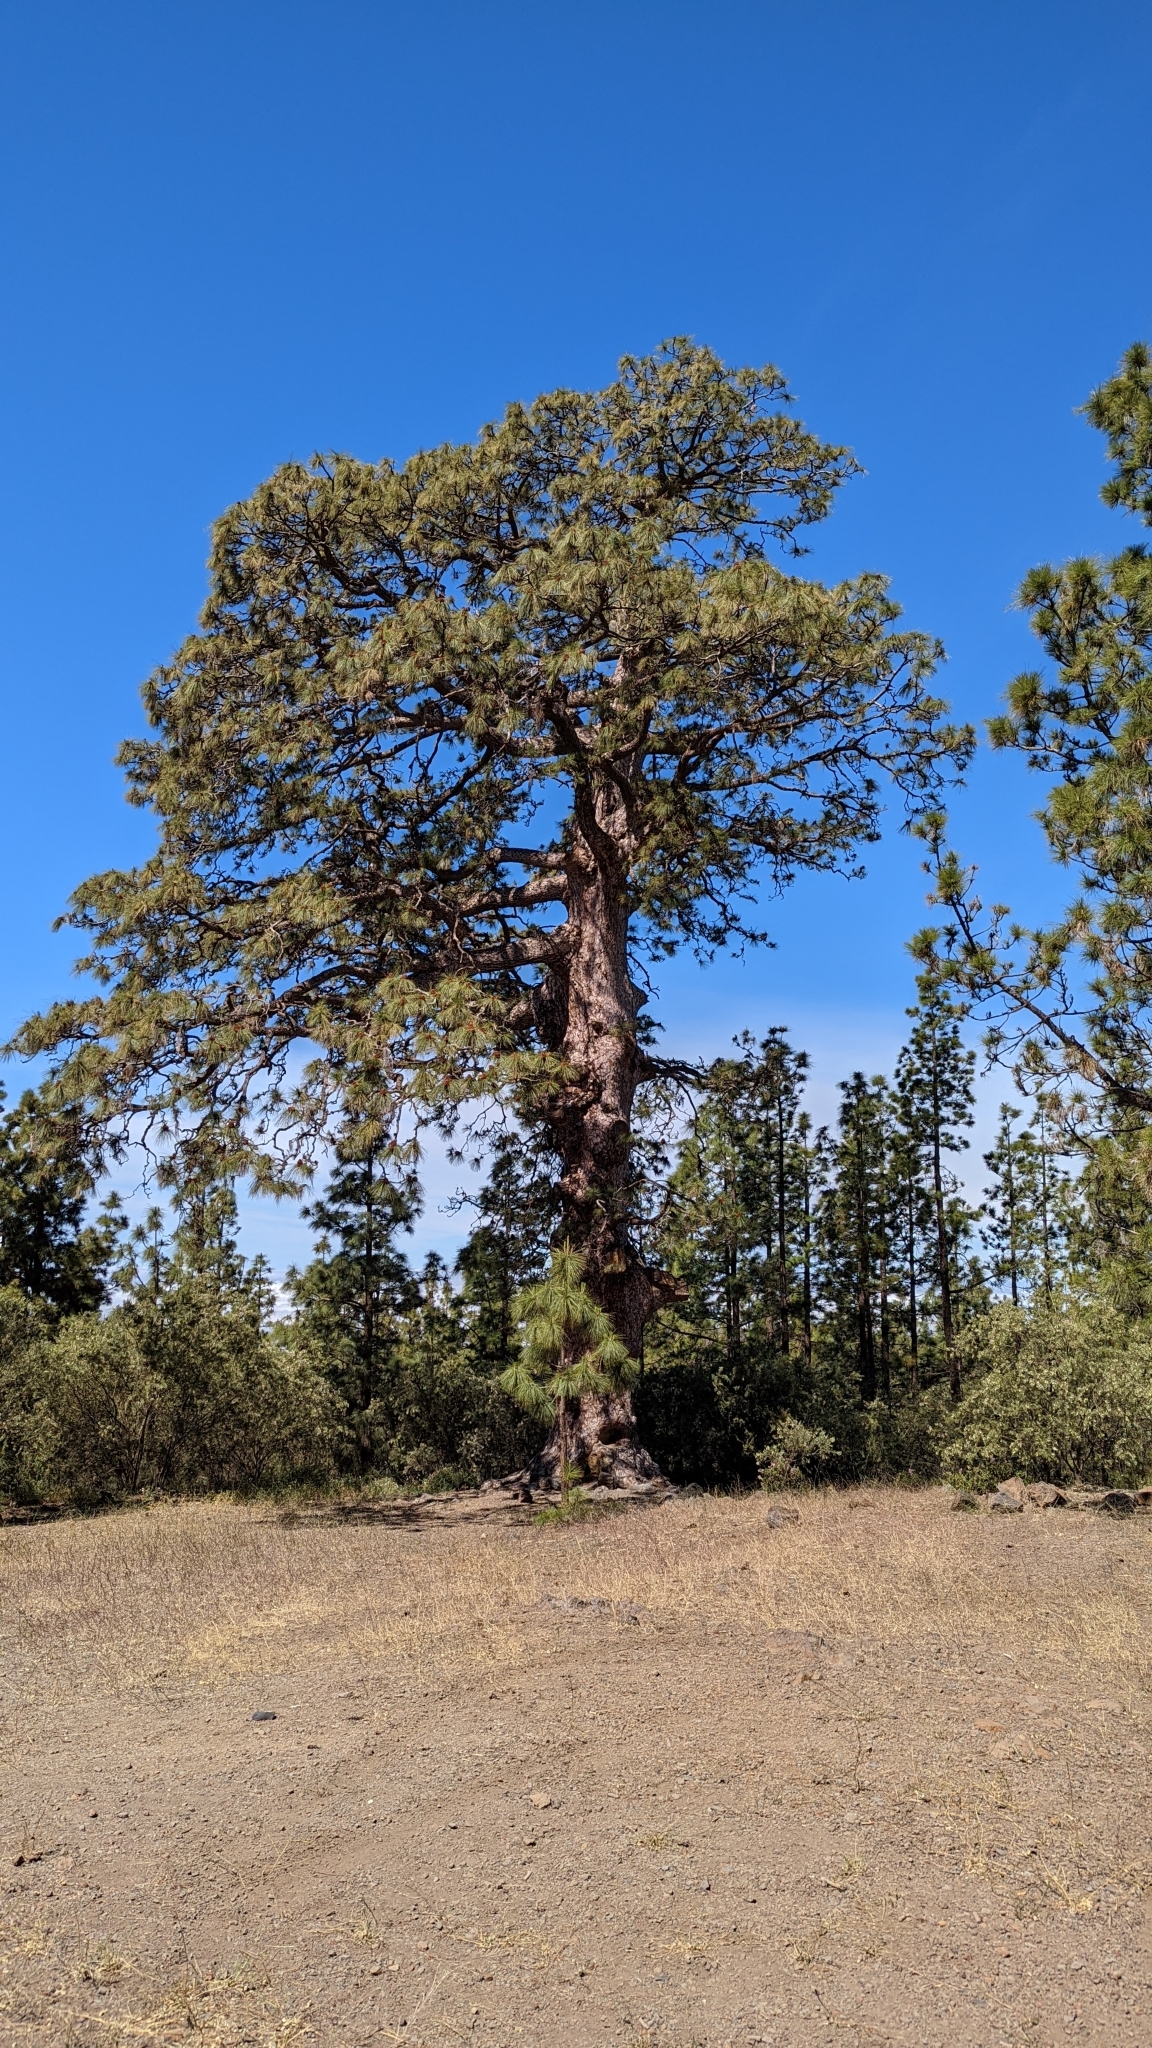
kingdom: Plantae
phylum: Tracheophyta
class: Pinopsida
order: Pinales
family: Pinaceae
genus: Pinus
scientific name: Pinus canariensis
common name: Canary islands pine
